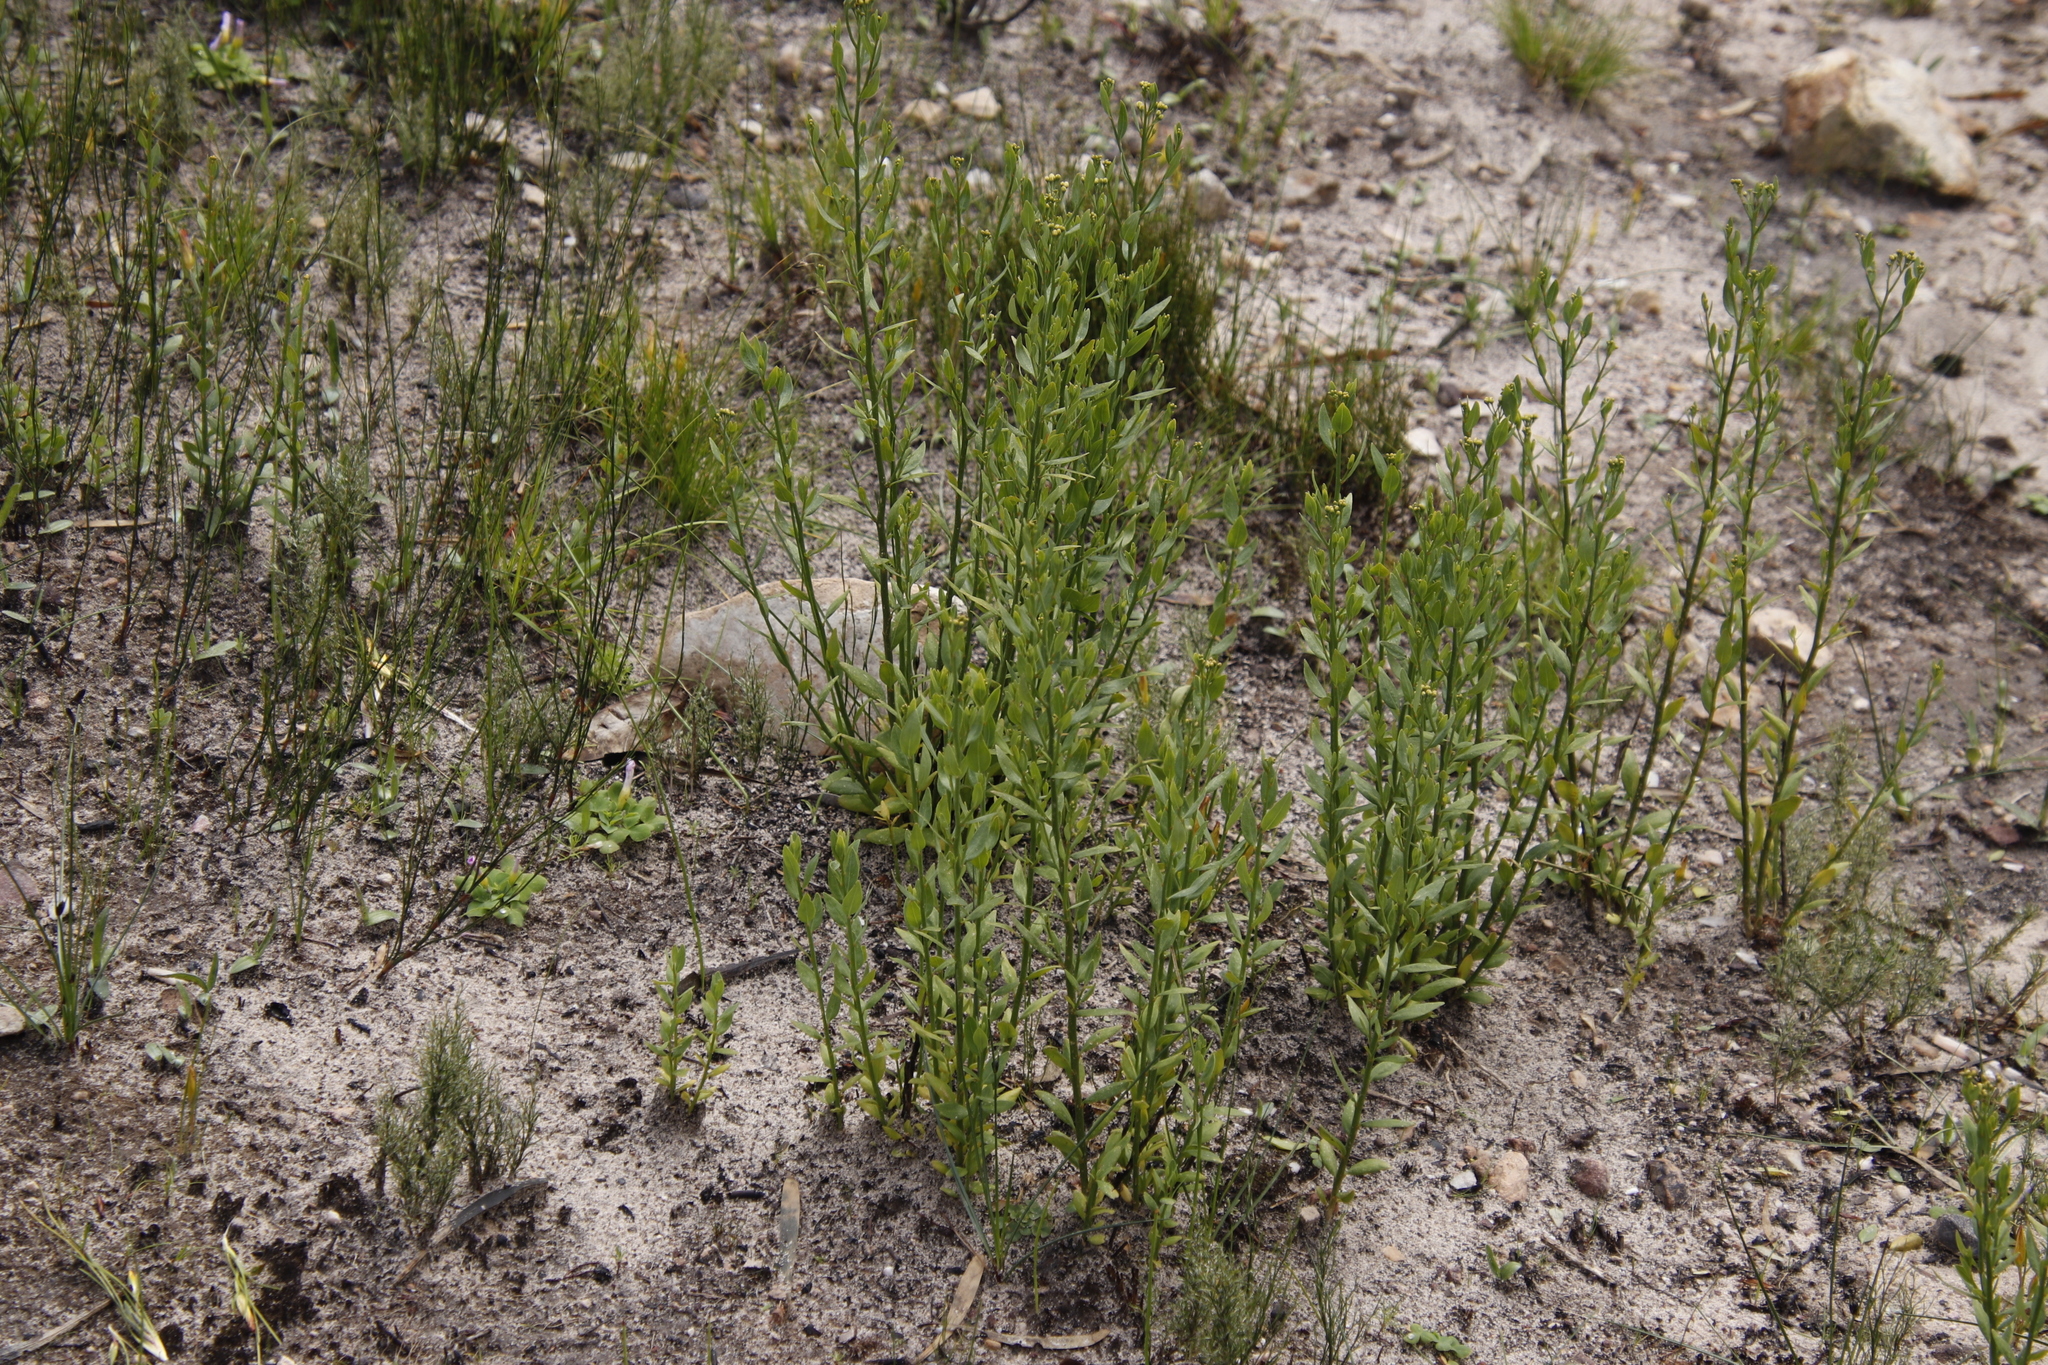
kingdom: Plantae
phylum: Tracheophyta
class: Magnoliopsida
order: Solanales
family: Montiniaceae
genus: Montinia
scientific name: Montinia caryophyllacea
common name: Wild clove-bush
